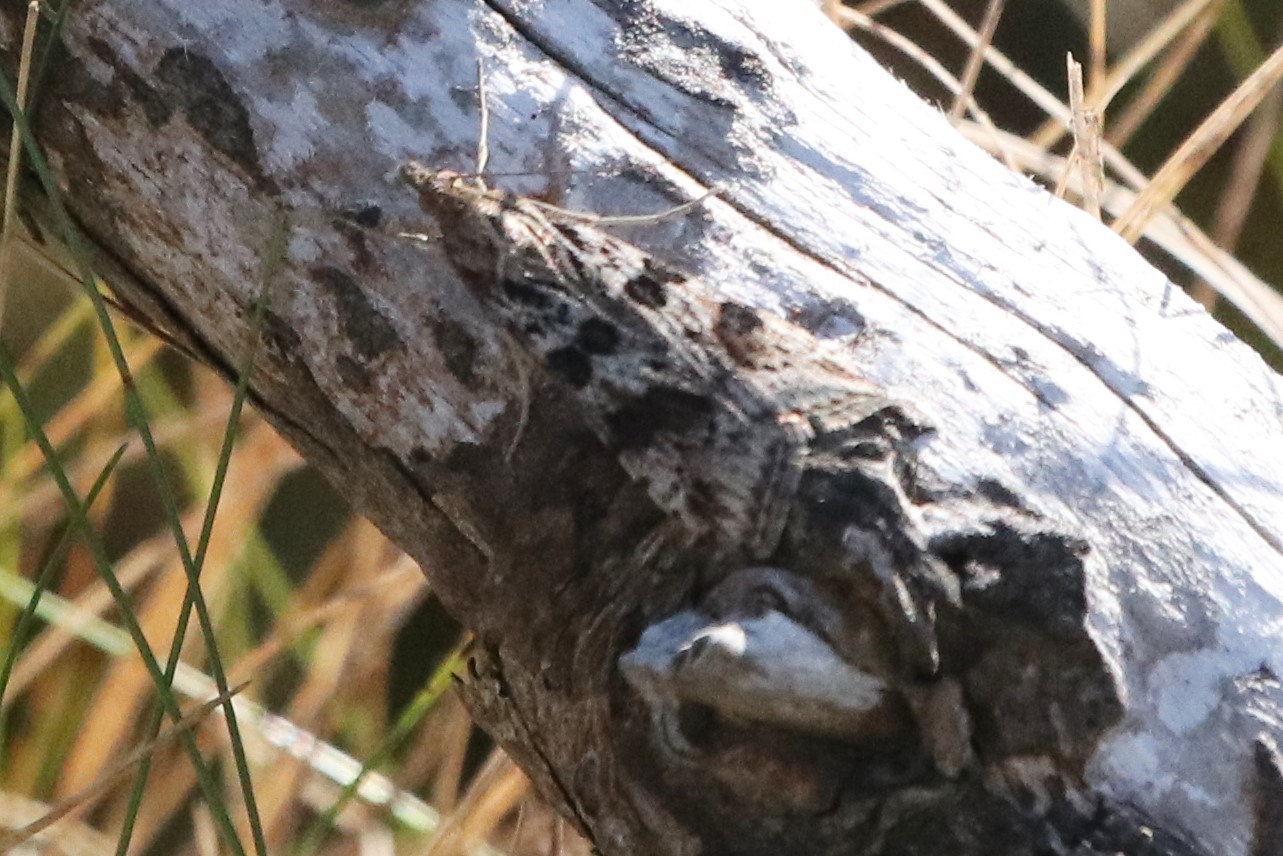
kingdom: Animalia
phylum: Arthropoda
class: Insecta
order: Lepidoptera
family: Crambidae
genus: Nomophila
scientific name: Nomophila nearctica
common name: American rush veneer
